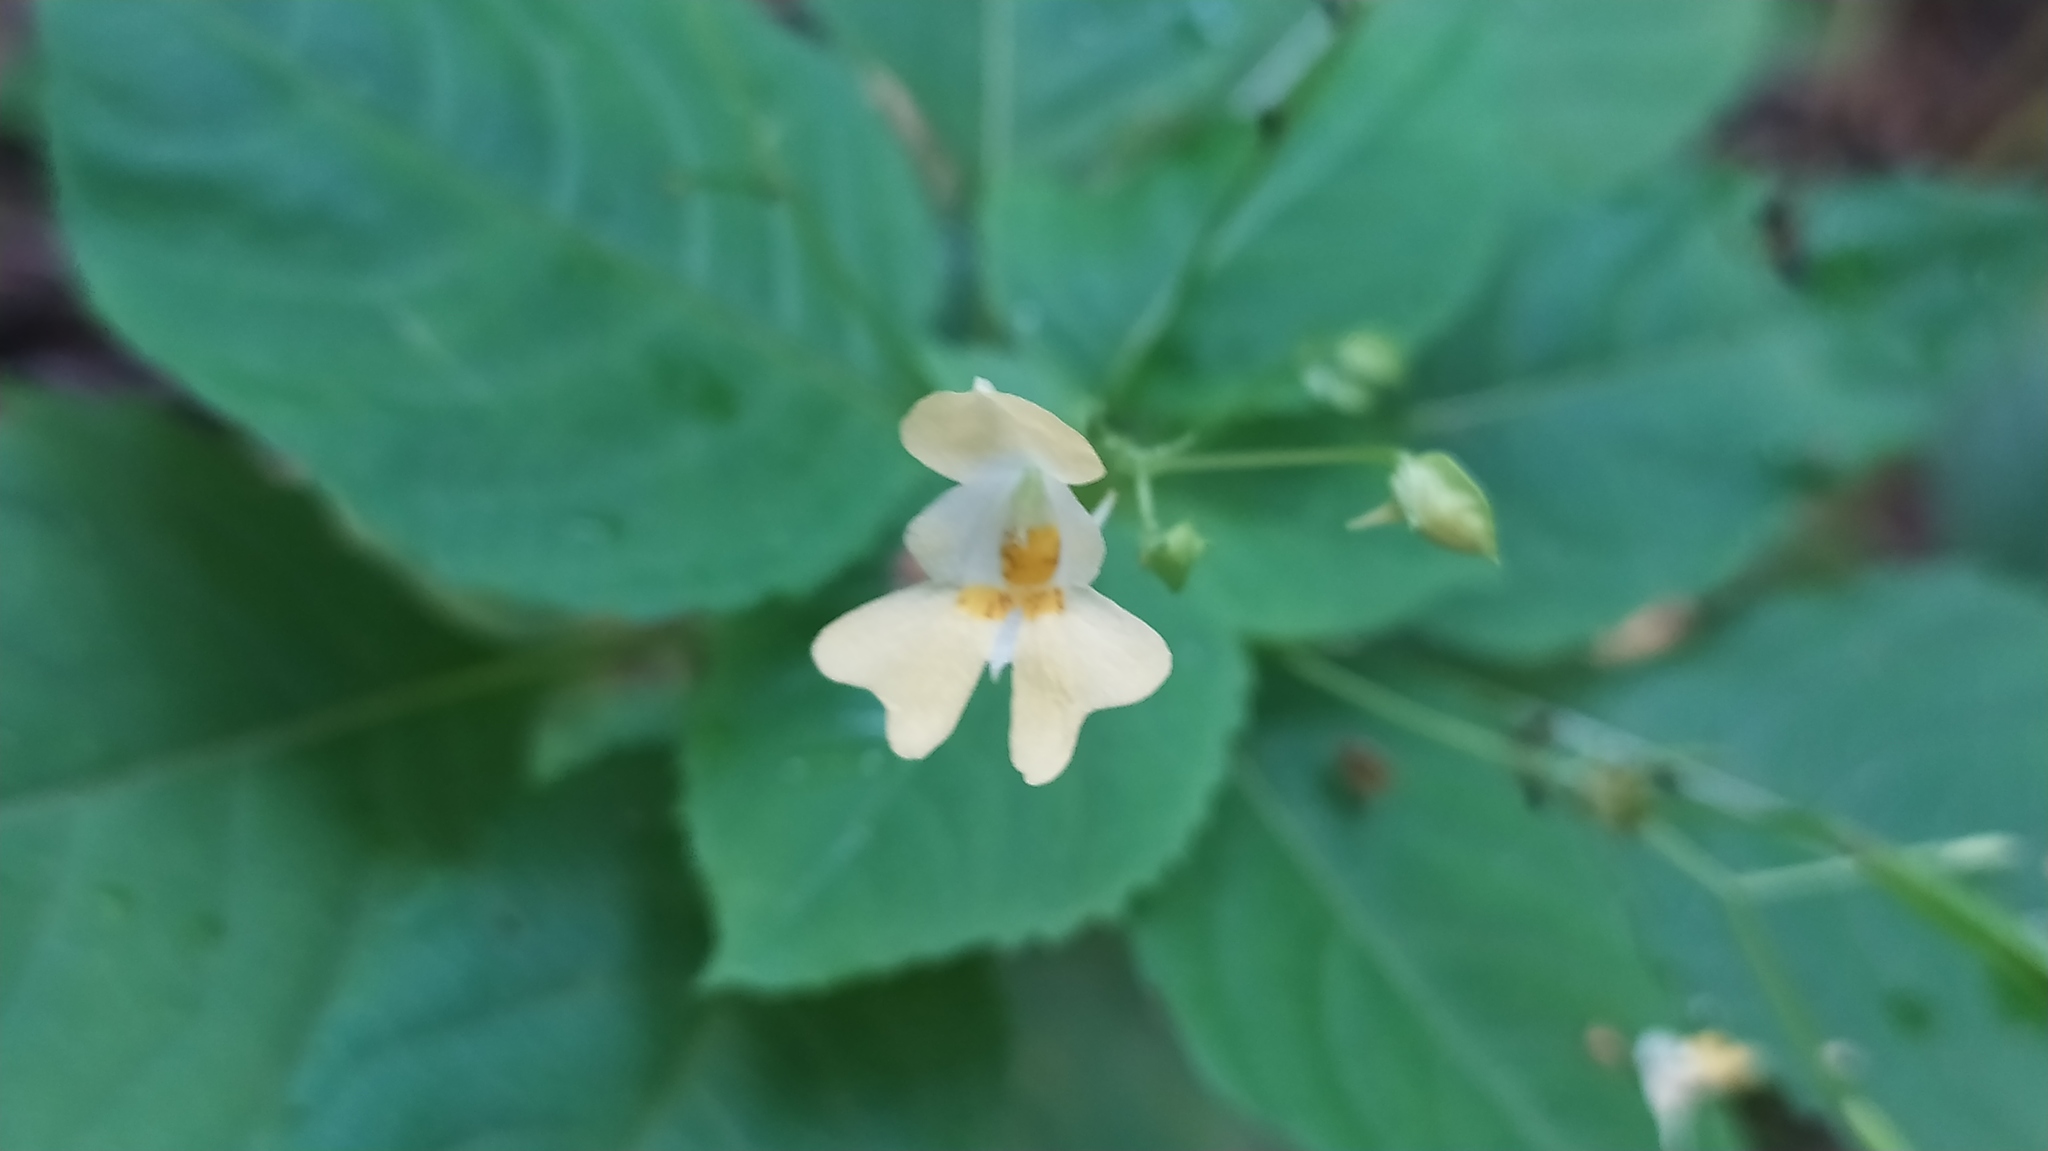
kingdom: Plantae
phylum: Tracheophyta
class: Magnoliopsida
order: Ericales
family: Balsaminaceae
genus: Impatiens
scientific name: Impatiens parviflora
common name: Small balsam
